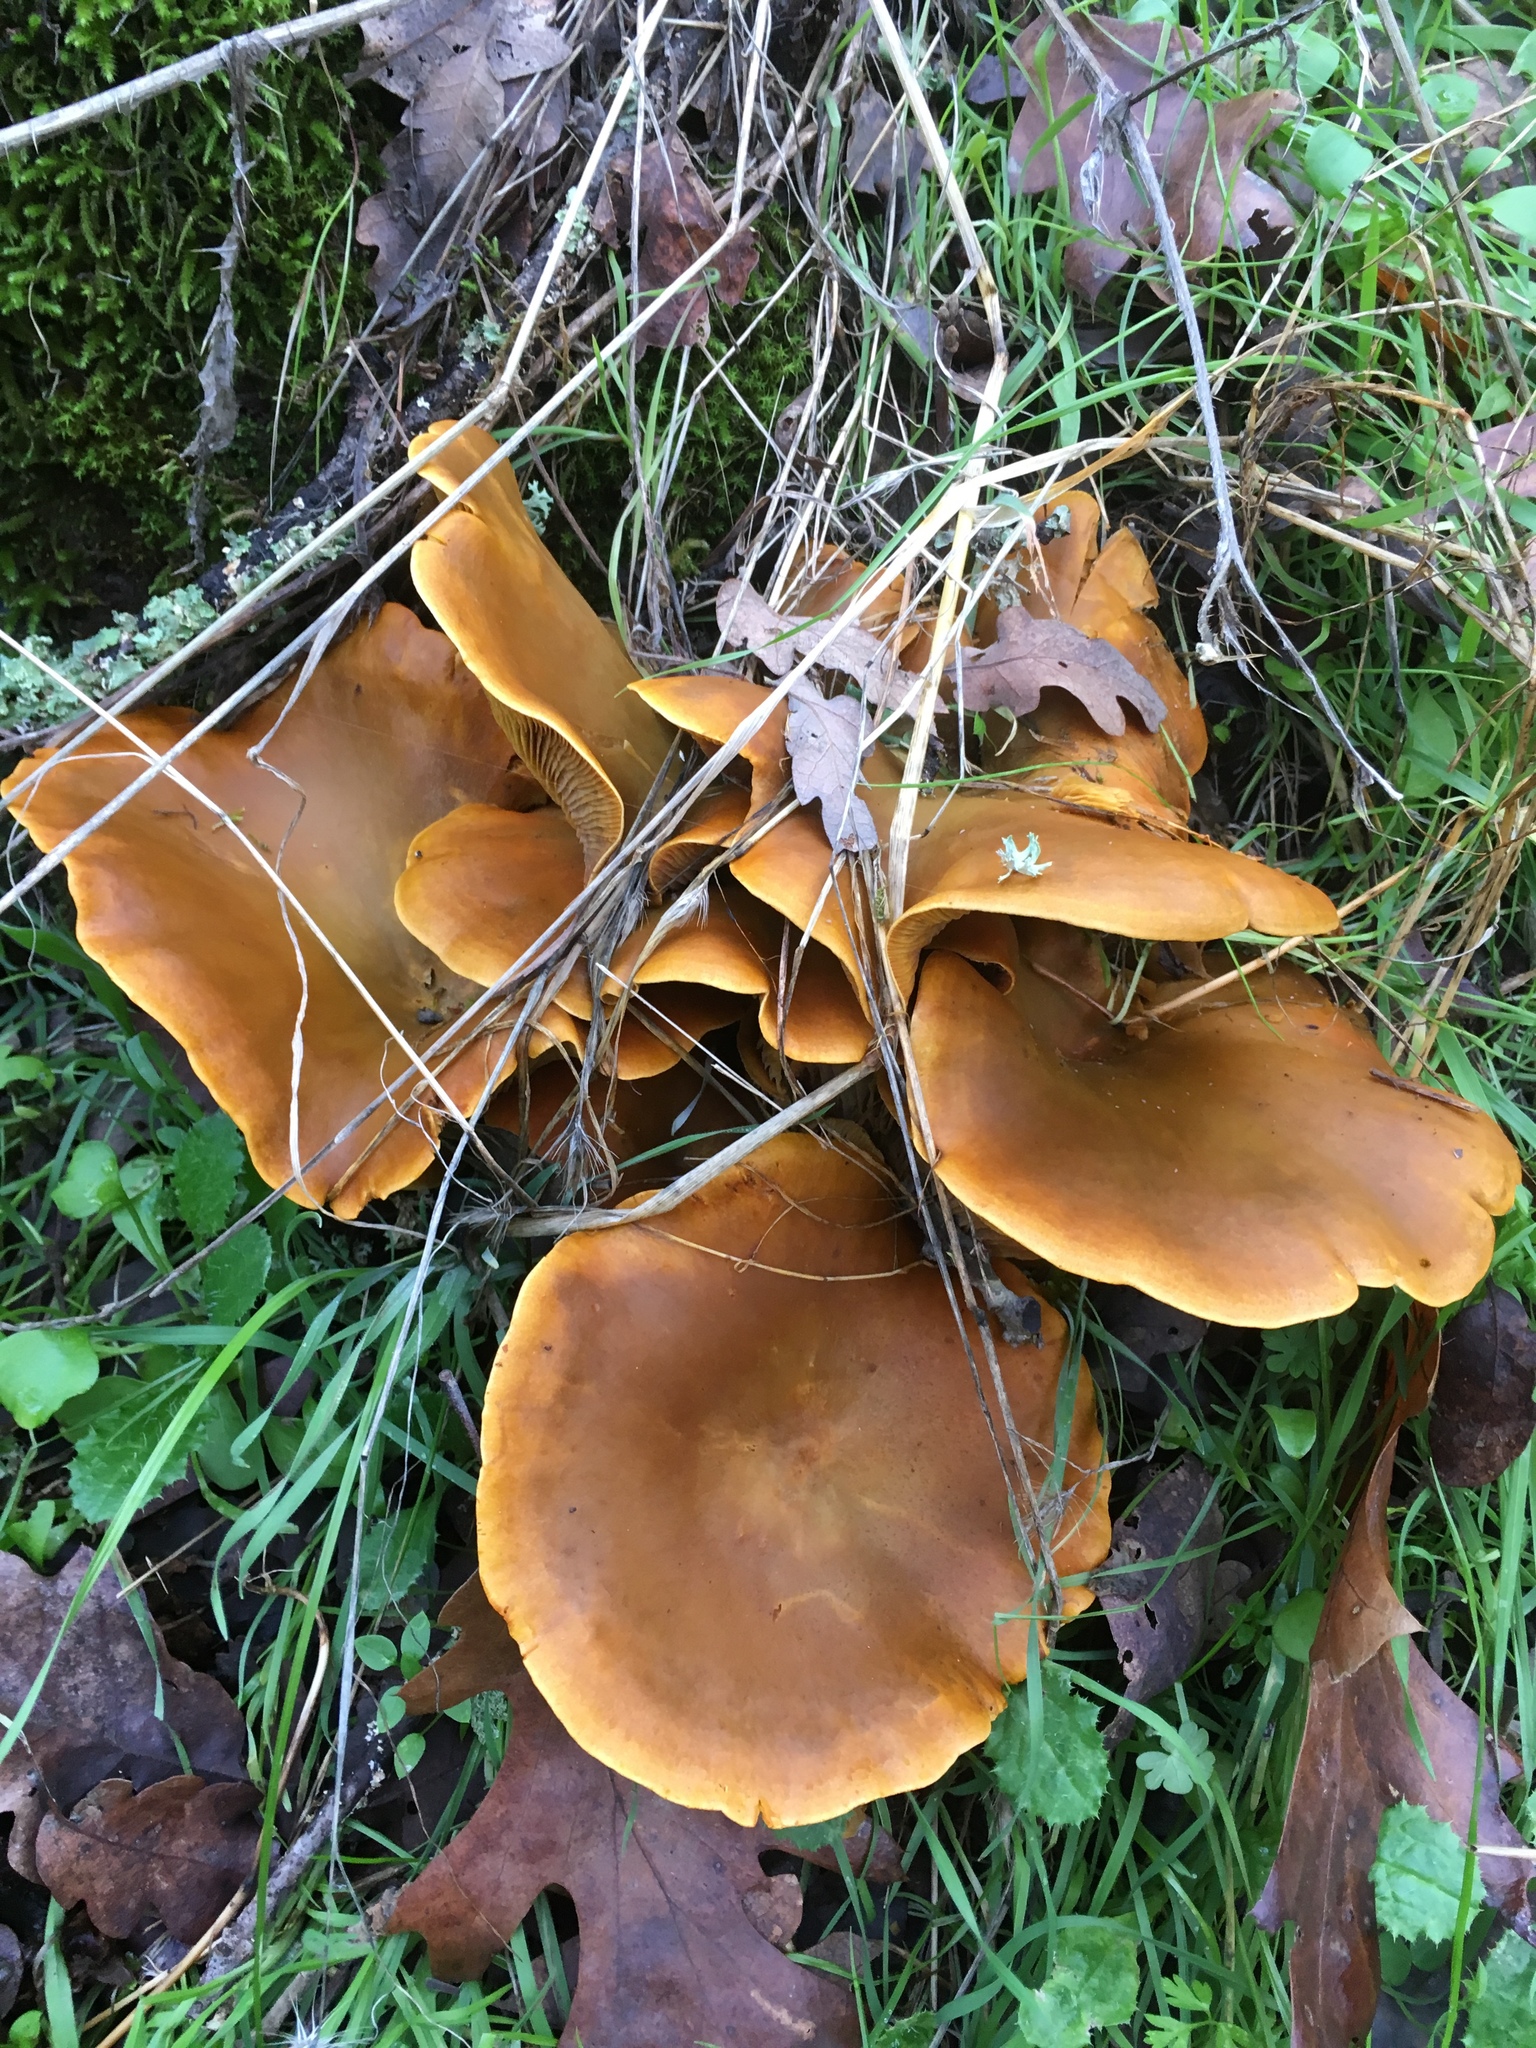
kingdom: Fungi
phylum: Basidiomycota
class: Agaricomycetes
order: Agaricales
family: Omphalotaceae
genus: Omphalotus
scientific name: Omphalotus olivascens
